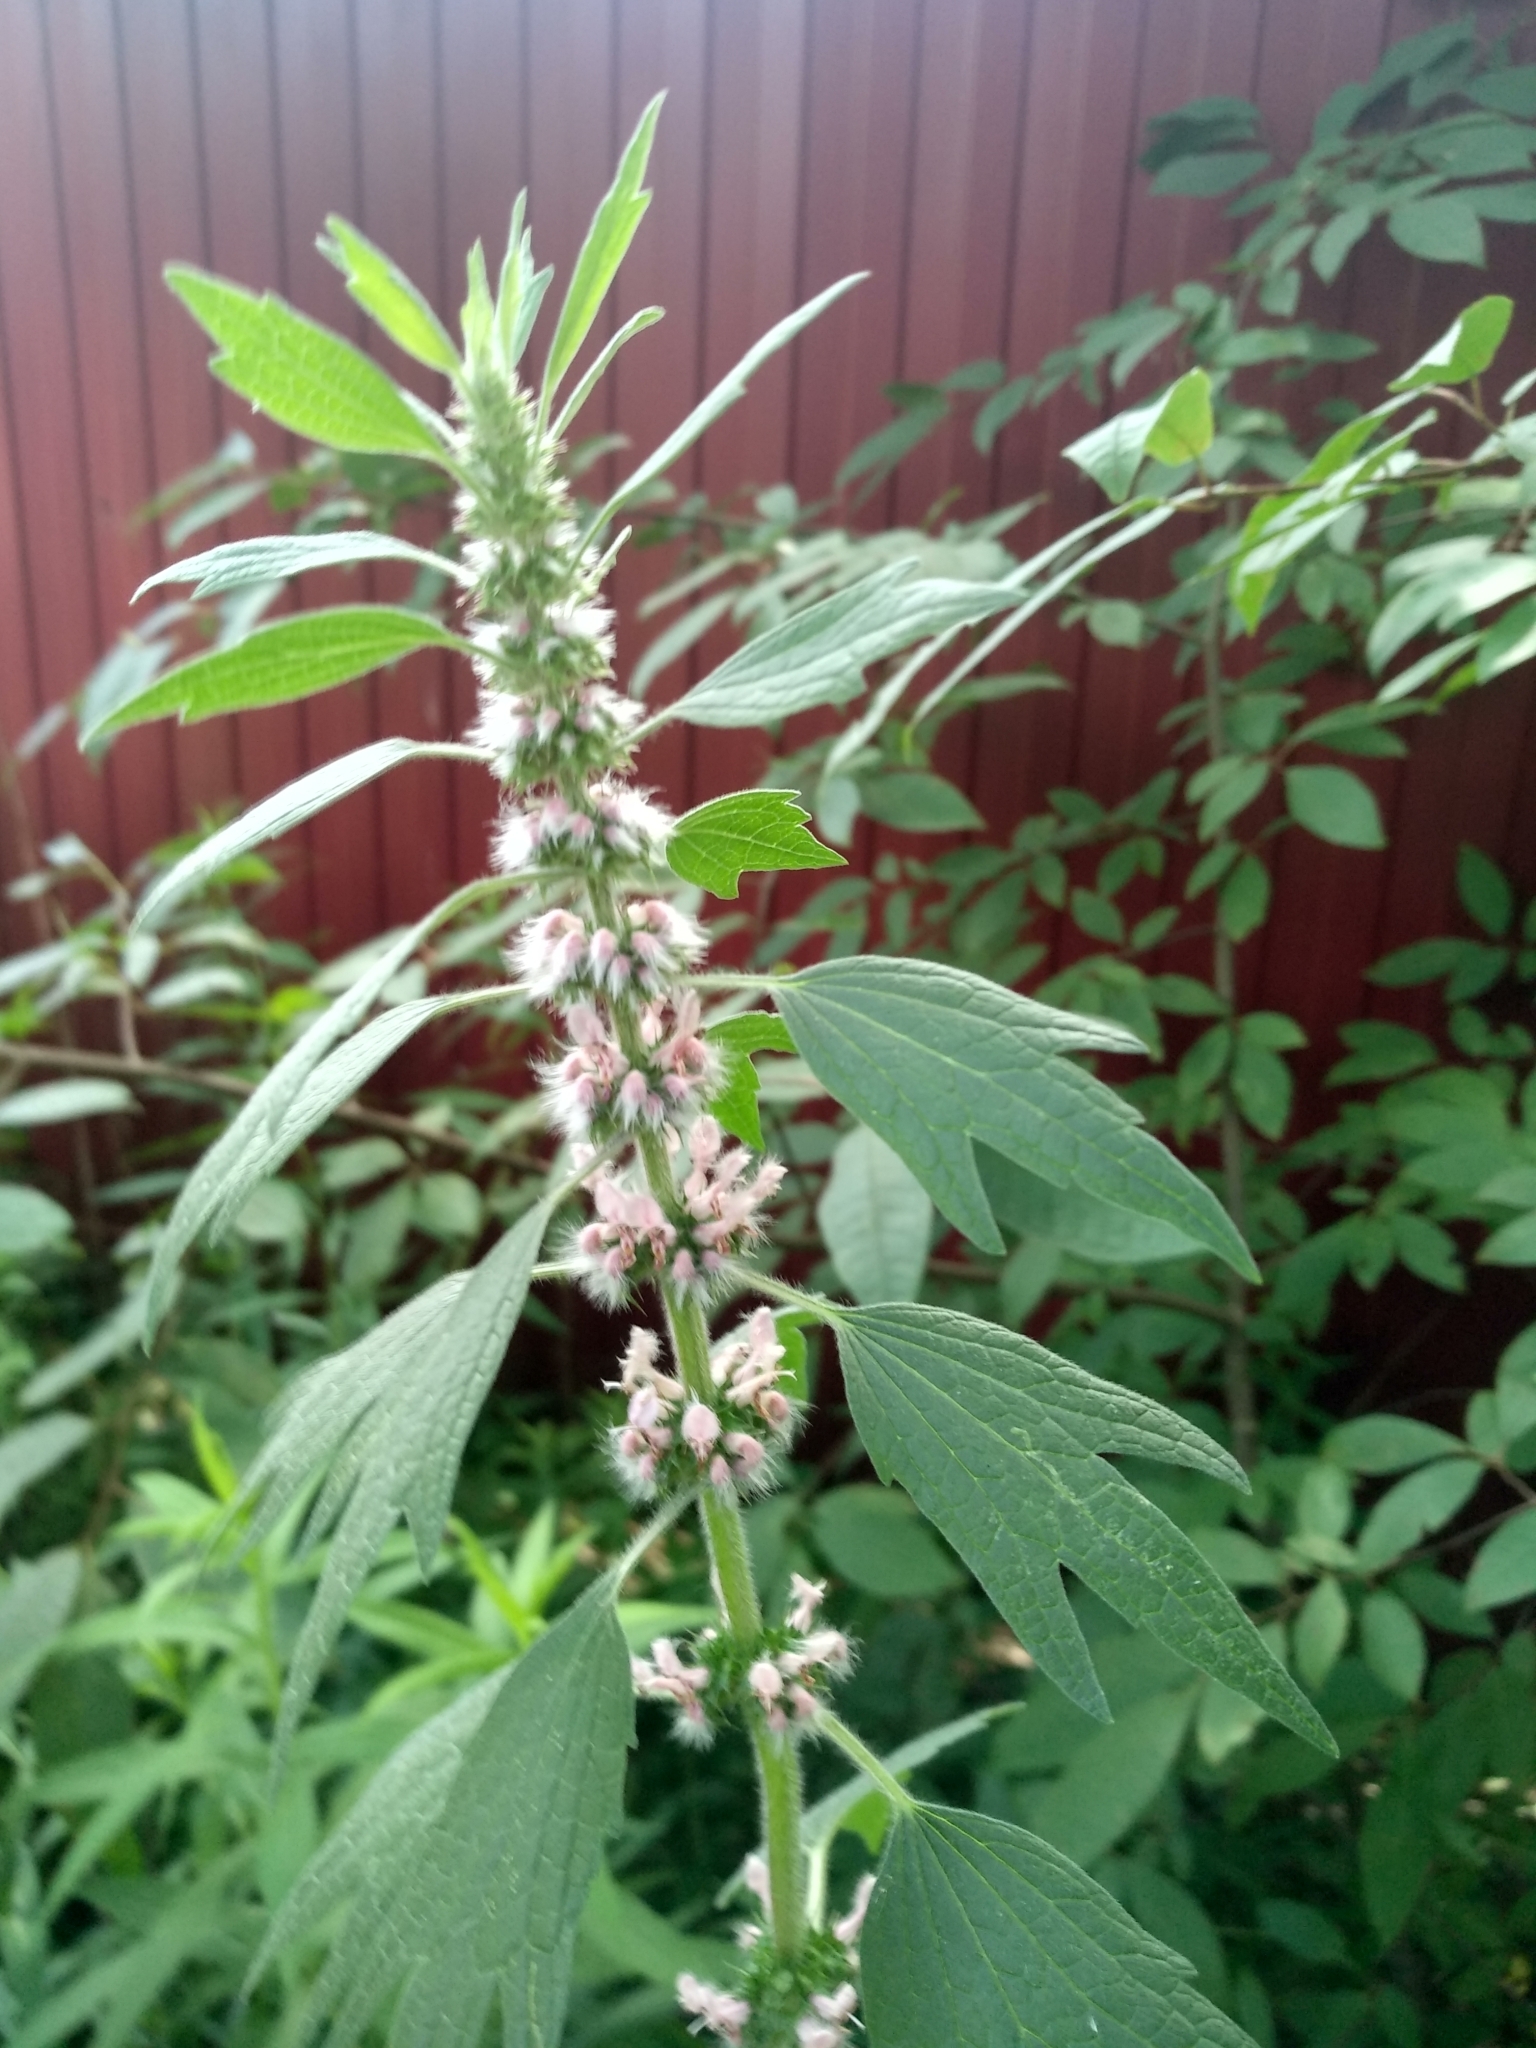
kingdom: Plantae
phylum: Tracheophyta
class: Magnoliopsida
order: Lamiales
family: Lamiaceae
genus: Leonurus
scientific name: Leonurus quinquelobatus
